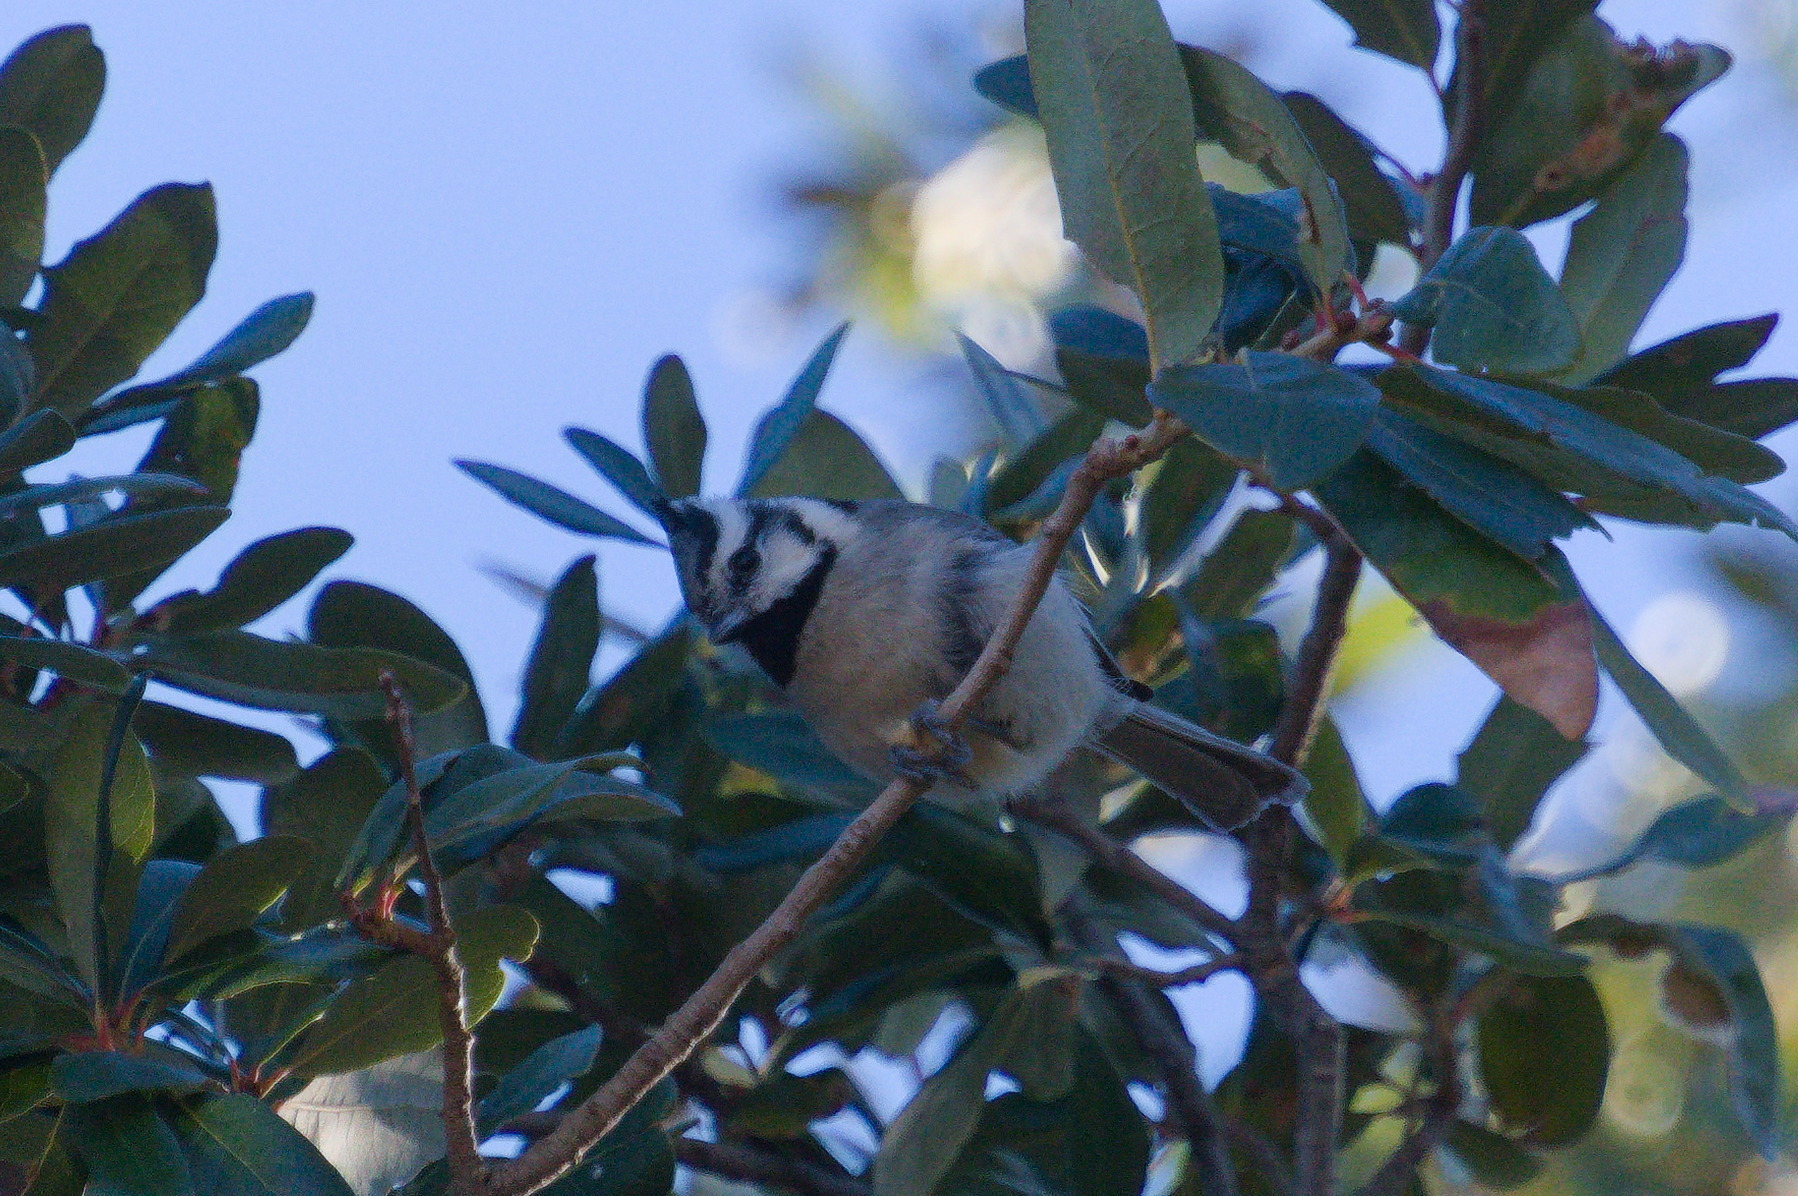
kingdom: Animalia
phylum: Chordata
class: Aves
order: Passeriformes
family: Paridae
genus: Baeolophus
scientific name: Baeolophus wollweberi
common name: Bridled titmouse
